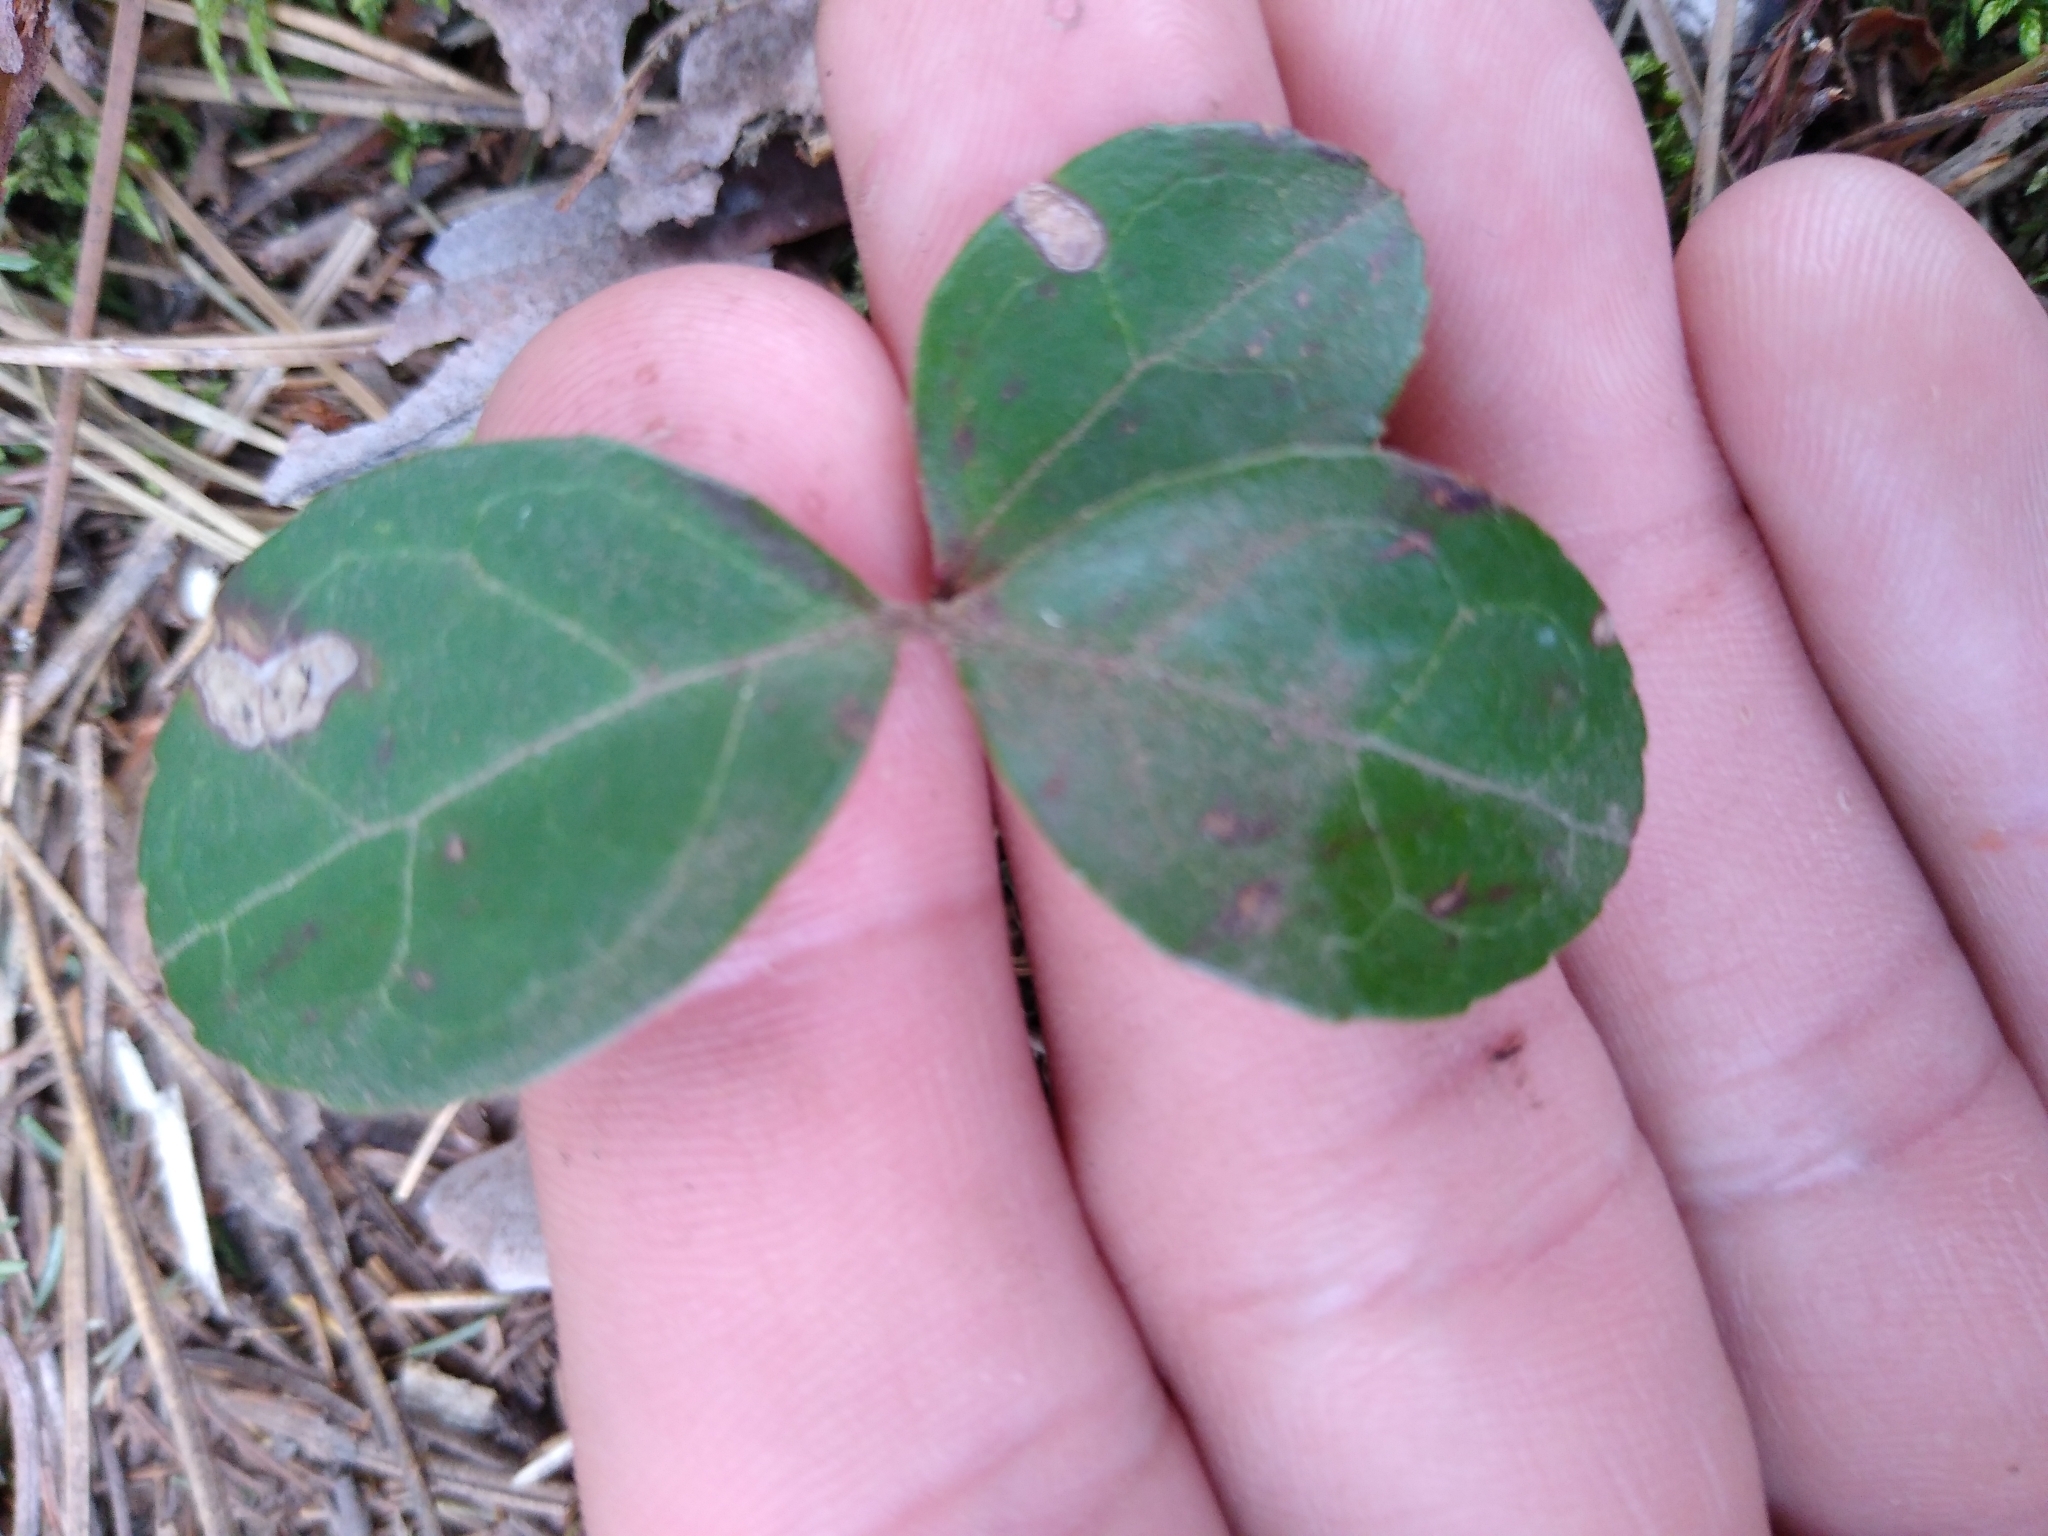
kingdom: Plantae
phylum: Tracheophyta
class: Magnoliopsida
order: Ericales
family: Ericaceae
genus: Gaultheria
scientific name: Gaultheria procumbens
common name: Checkerberry
